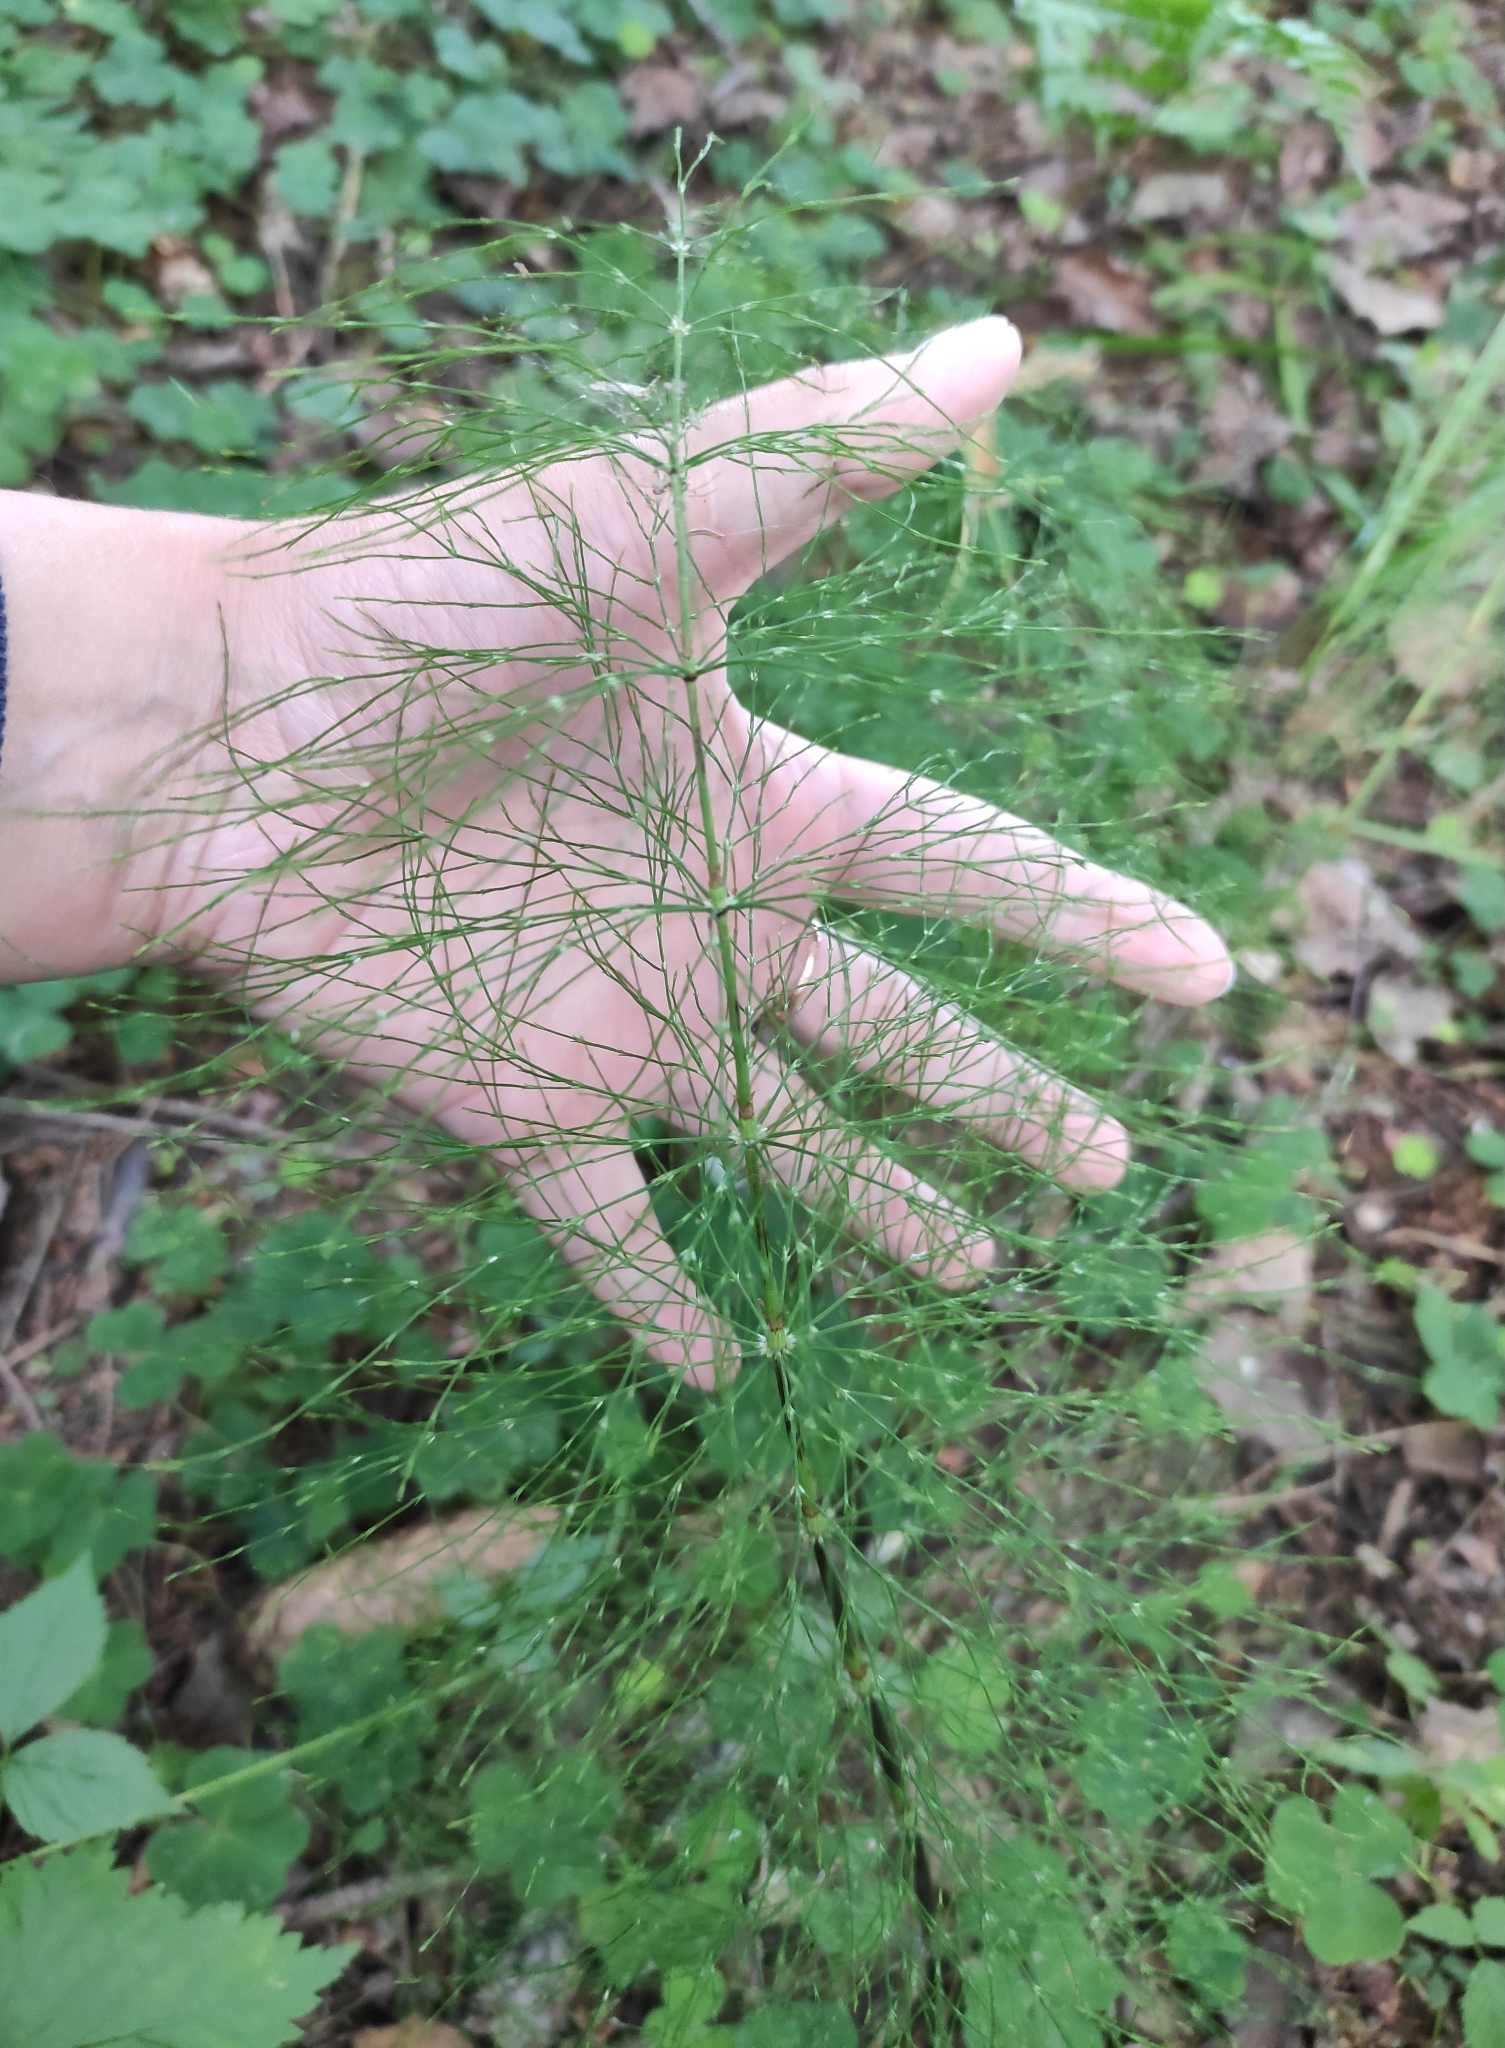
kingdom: Plantae
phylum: Tracheophyta
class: Polypodiopsida
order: Equisetales
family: Equisetaceae
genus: Equisetum
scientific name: Equisetum sylvaticum
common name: Wood horsetail
